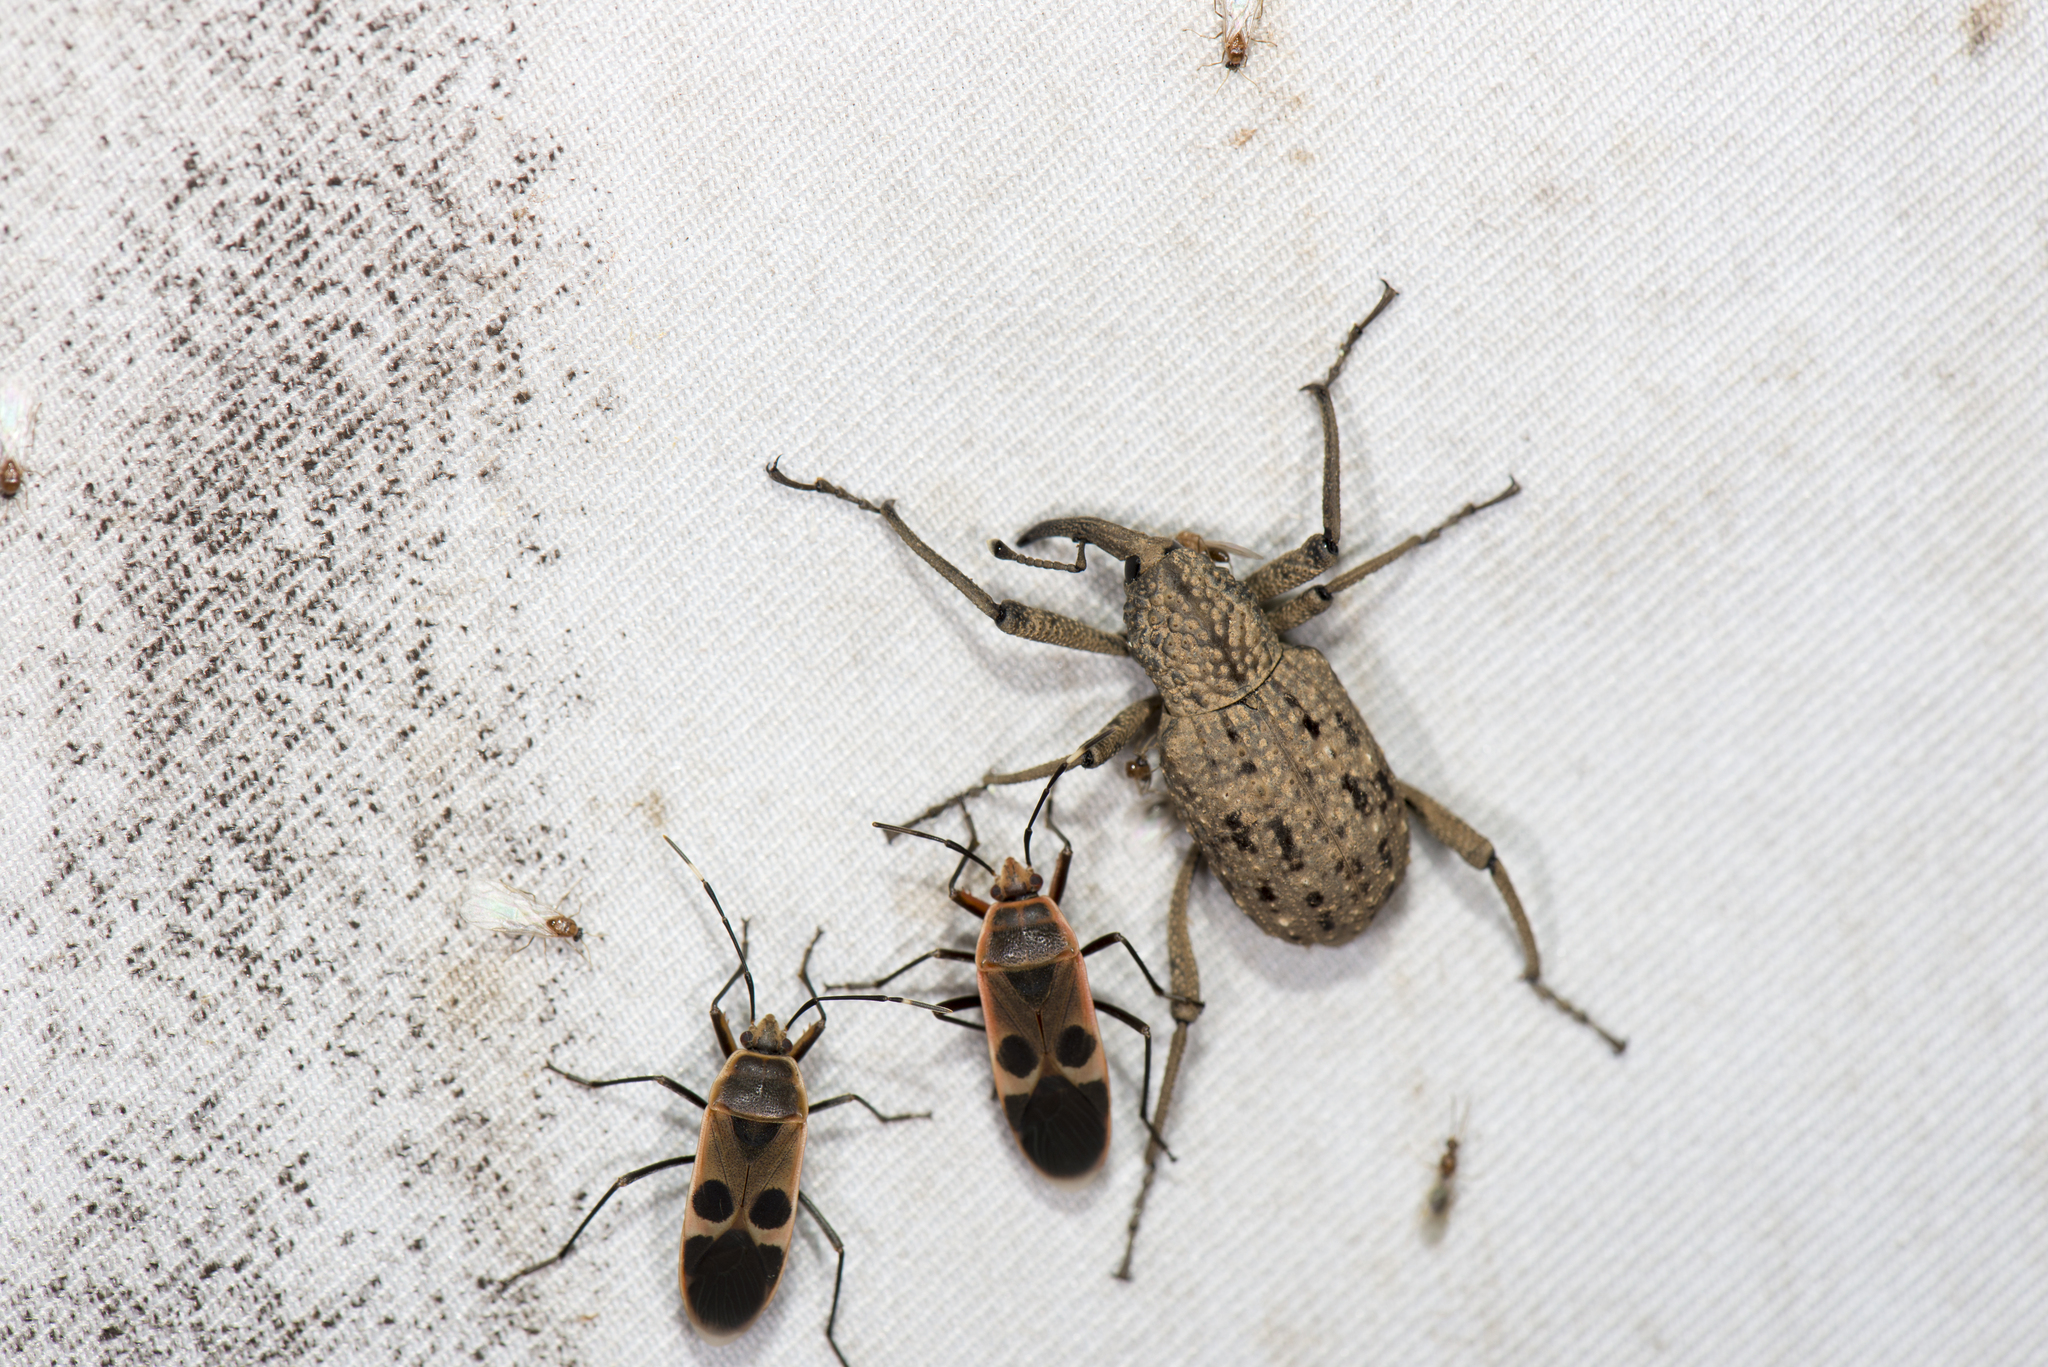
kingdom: Animalia
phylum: Arthropoda
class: Insecta
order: Coleoptera
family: Dryophthoridae
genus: Sipalinus
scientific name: Sipalinus gigas
